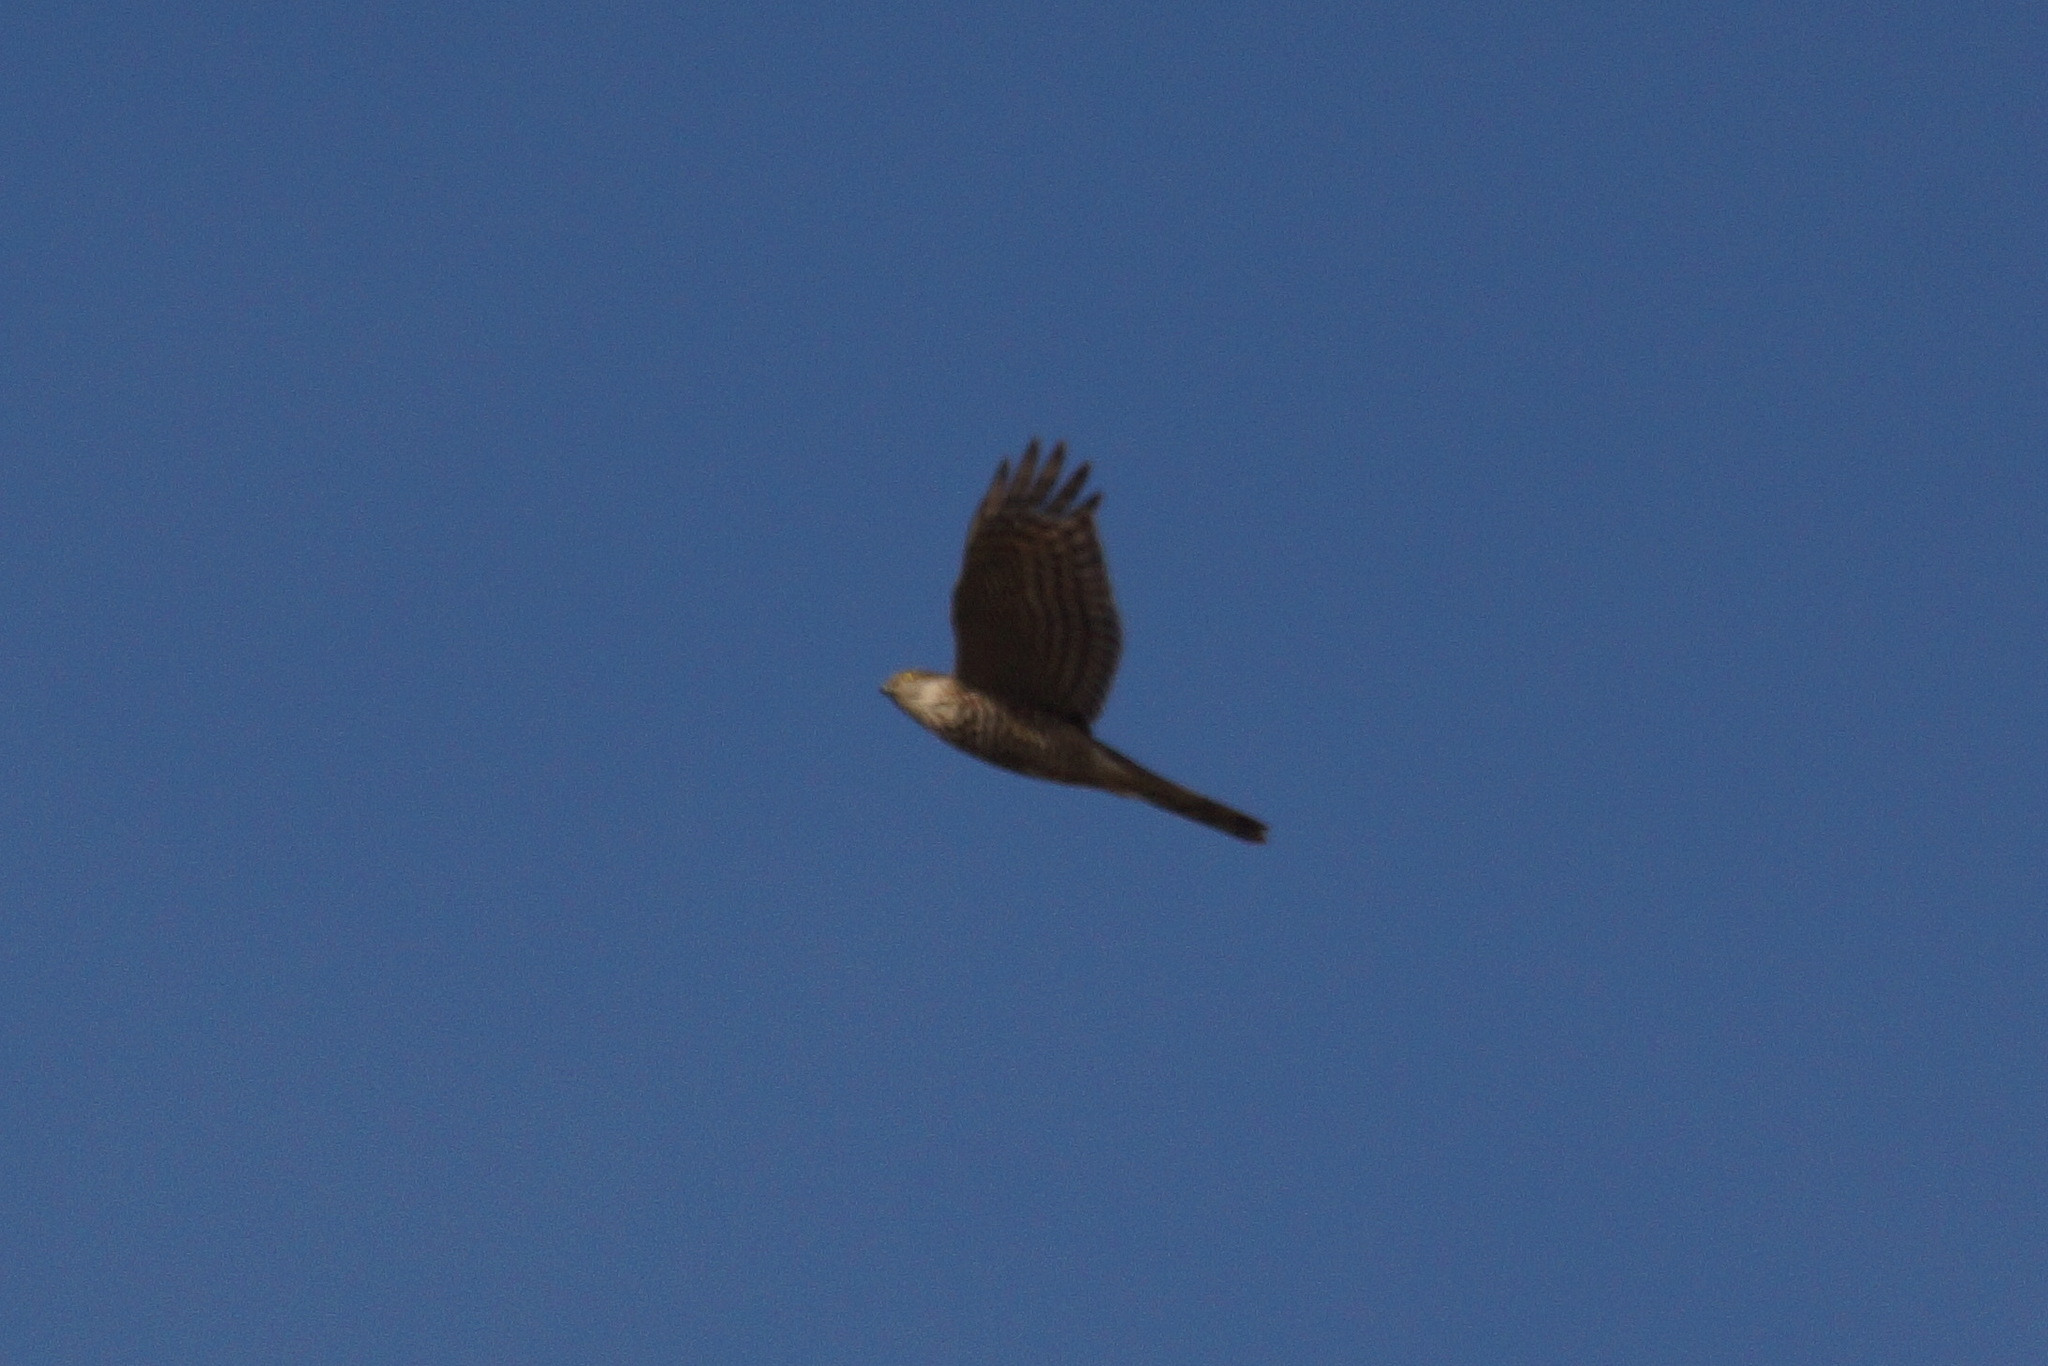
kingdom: Animalia
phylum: Chordata
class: Aves
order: Accipitriformes
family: Accipitridae
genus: Accipiter
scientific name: Accipiter nisus
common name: Eurasian sparrowhawk
